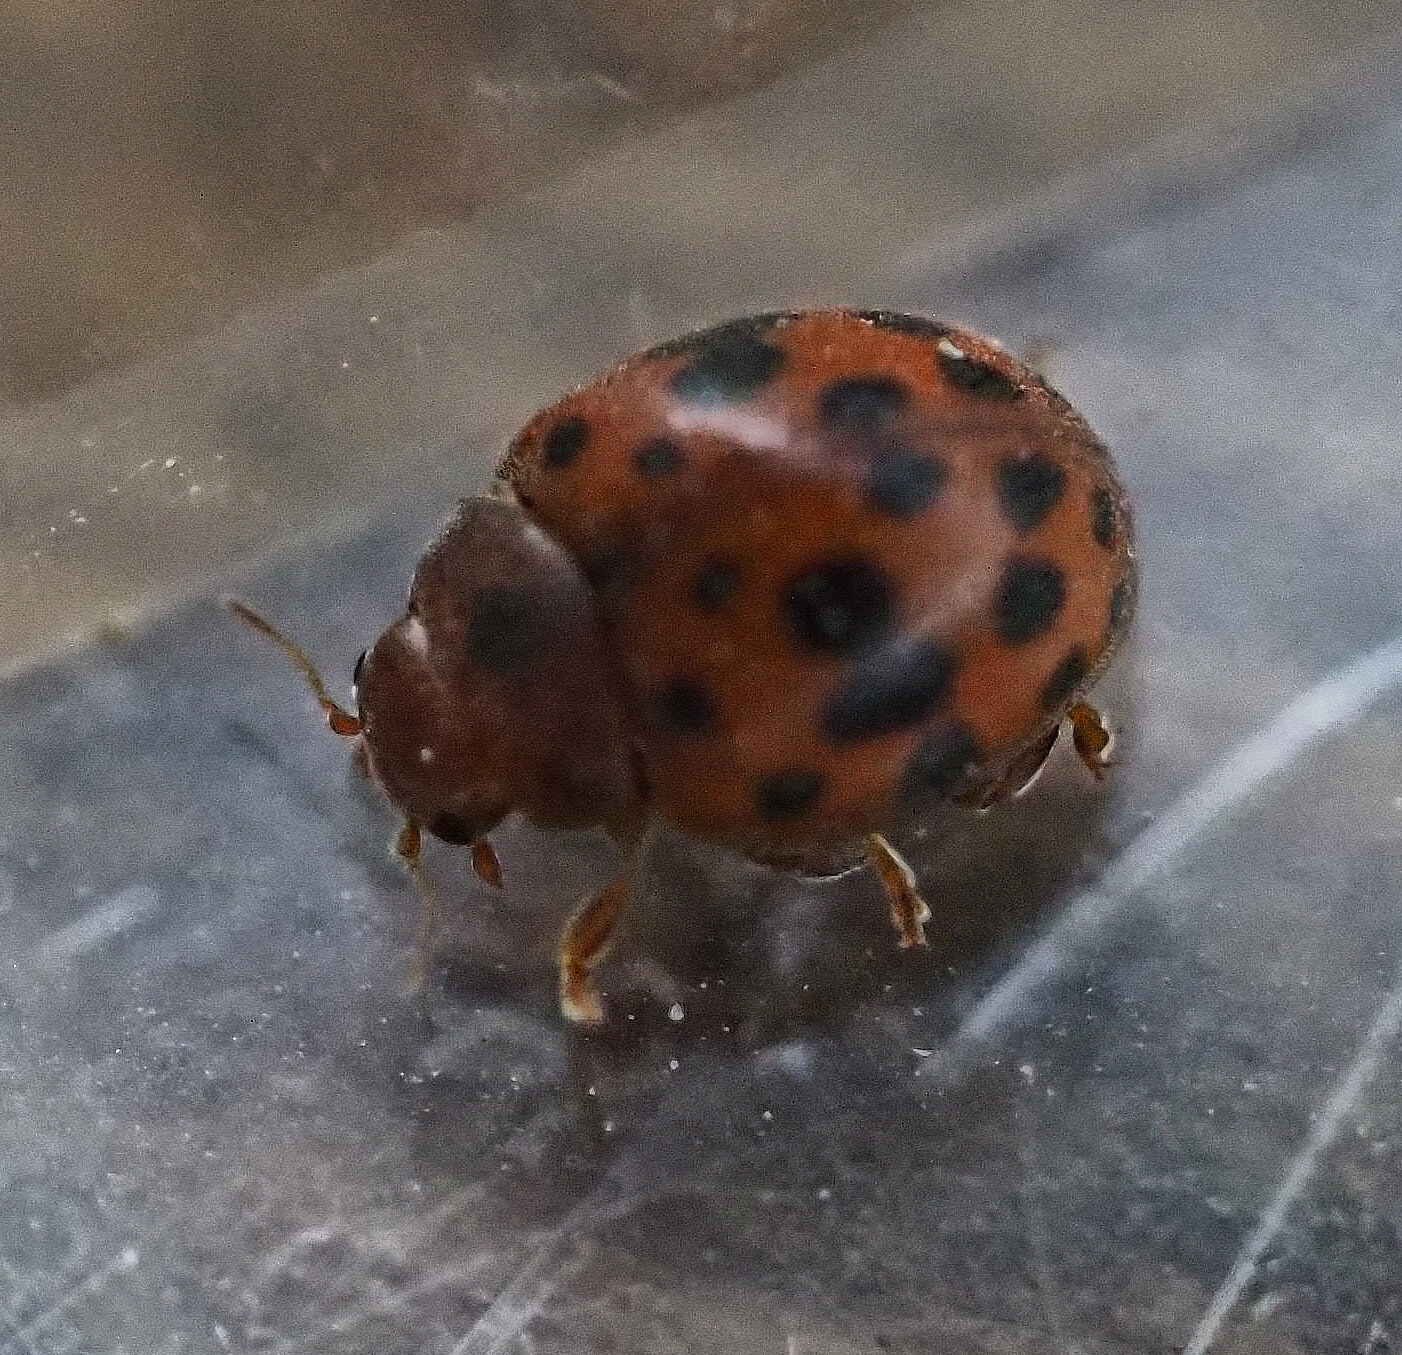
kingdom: Animalia
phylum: Arthropoda
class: Insecta
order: Coleoptera
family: Coccinellidae
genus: Subcoccinella
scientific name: Subcoccinella vigintiquatuorpunctata
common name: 24-spot ladybird
